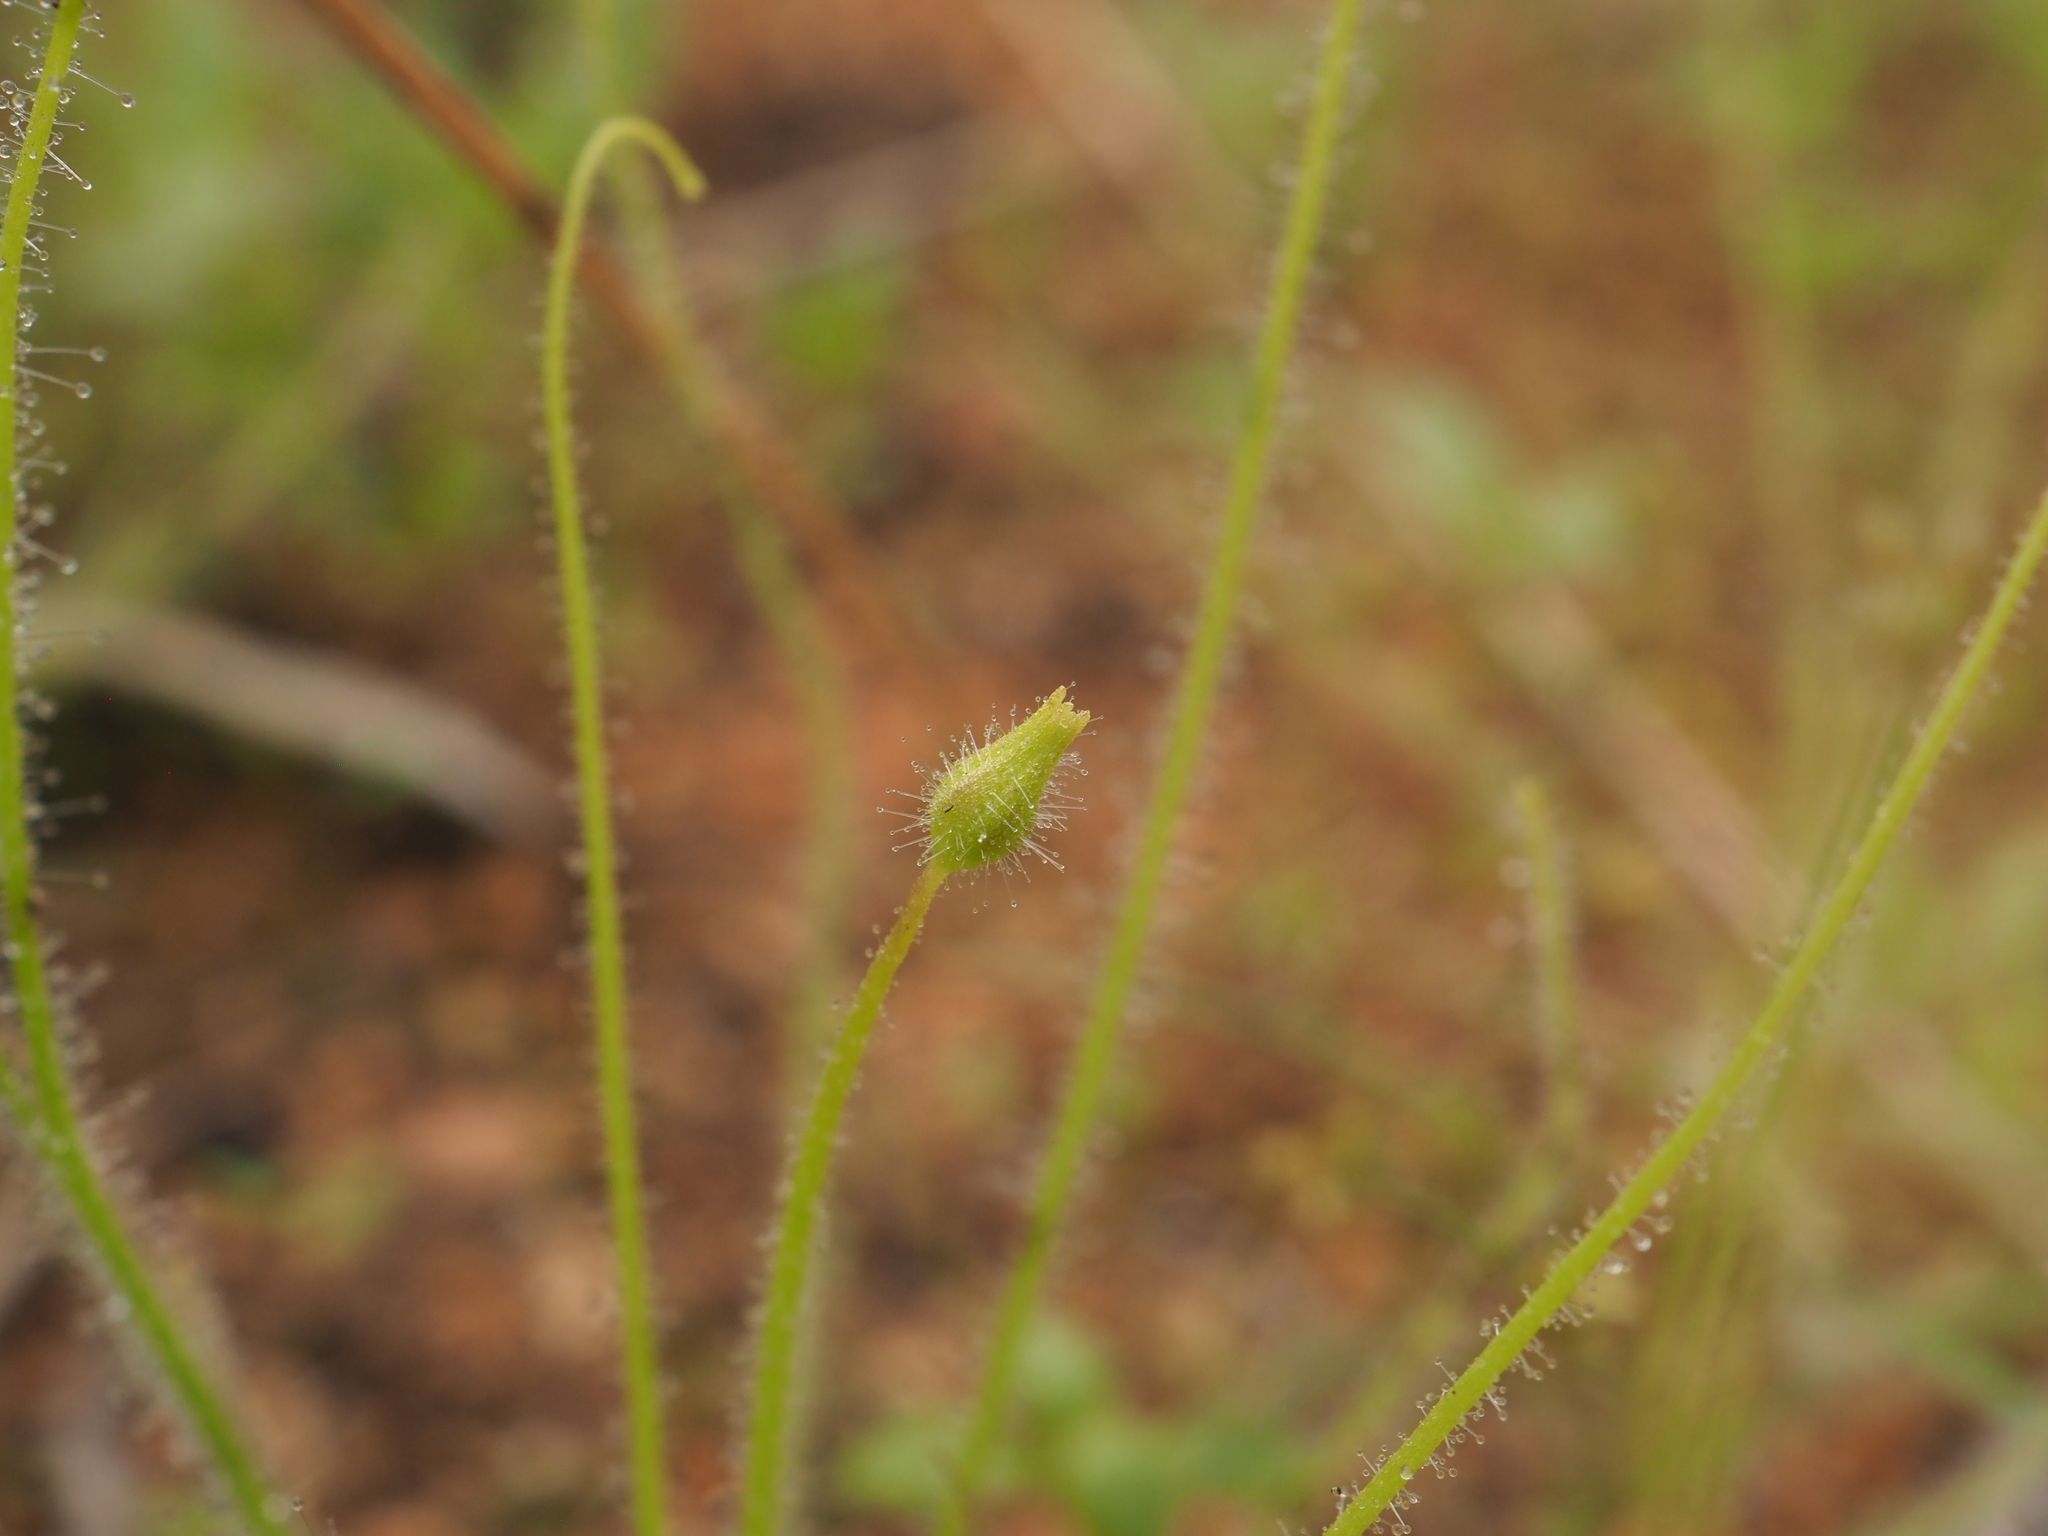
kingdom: Plantae
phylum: Tracheophyta
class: Magnoliopsida
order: Lamiales
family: Byblidaceae
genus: Byblis
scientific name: Byblis pilbarana
